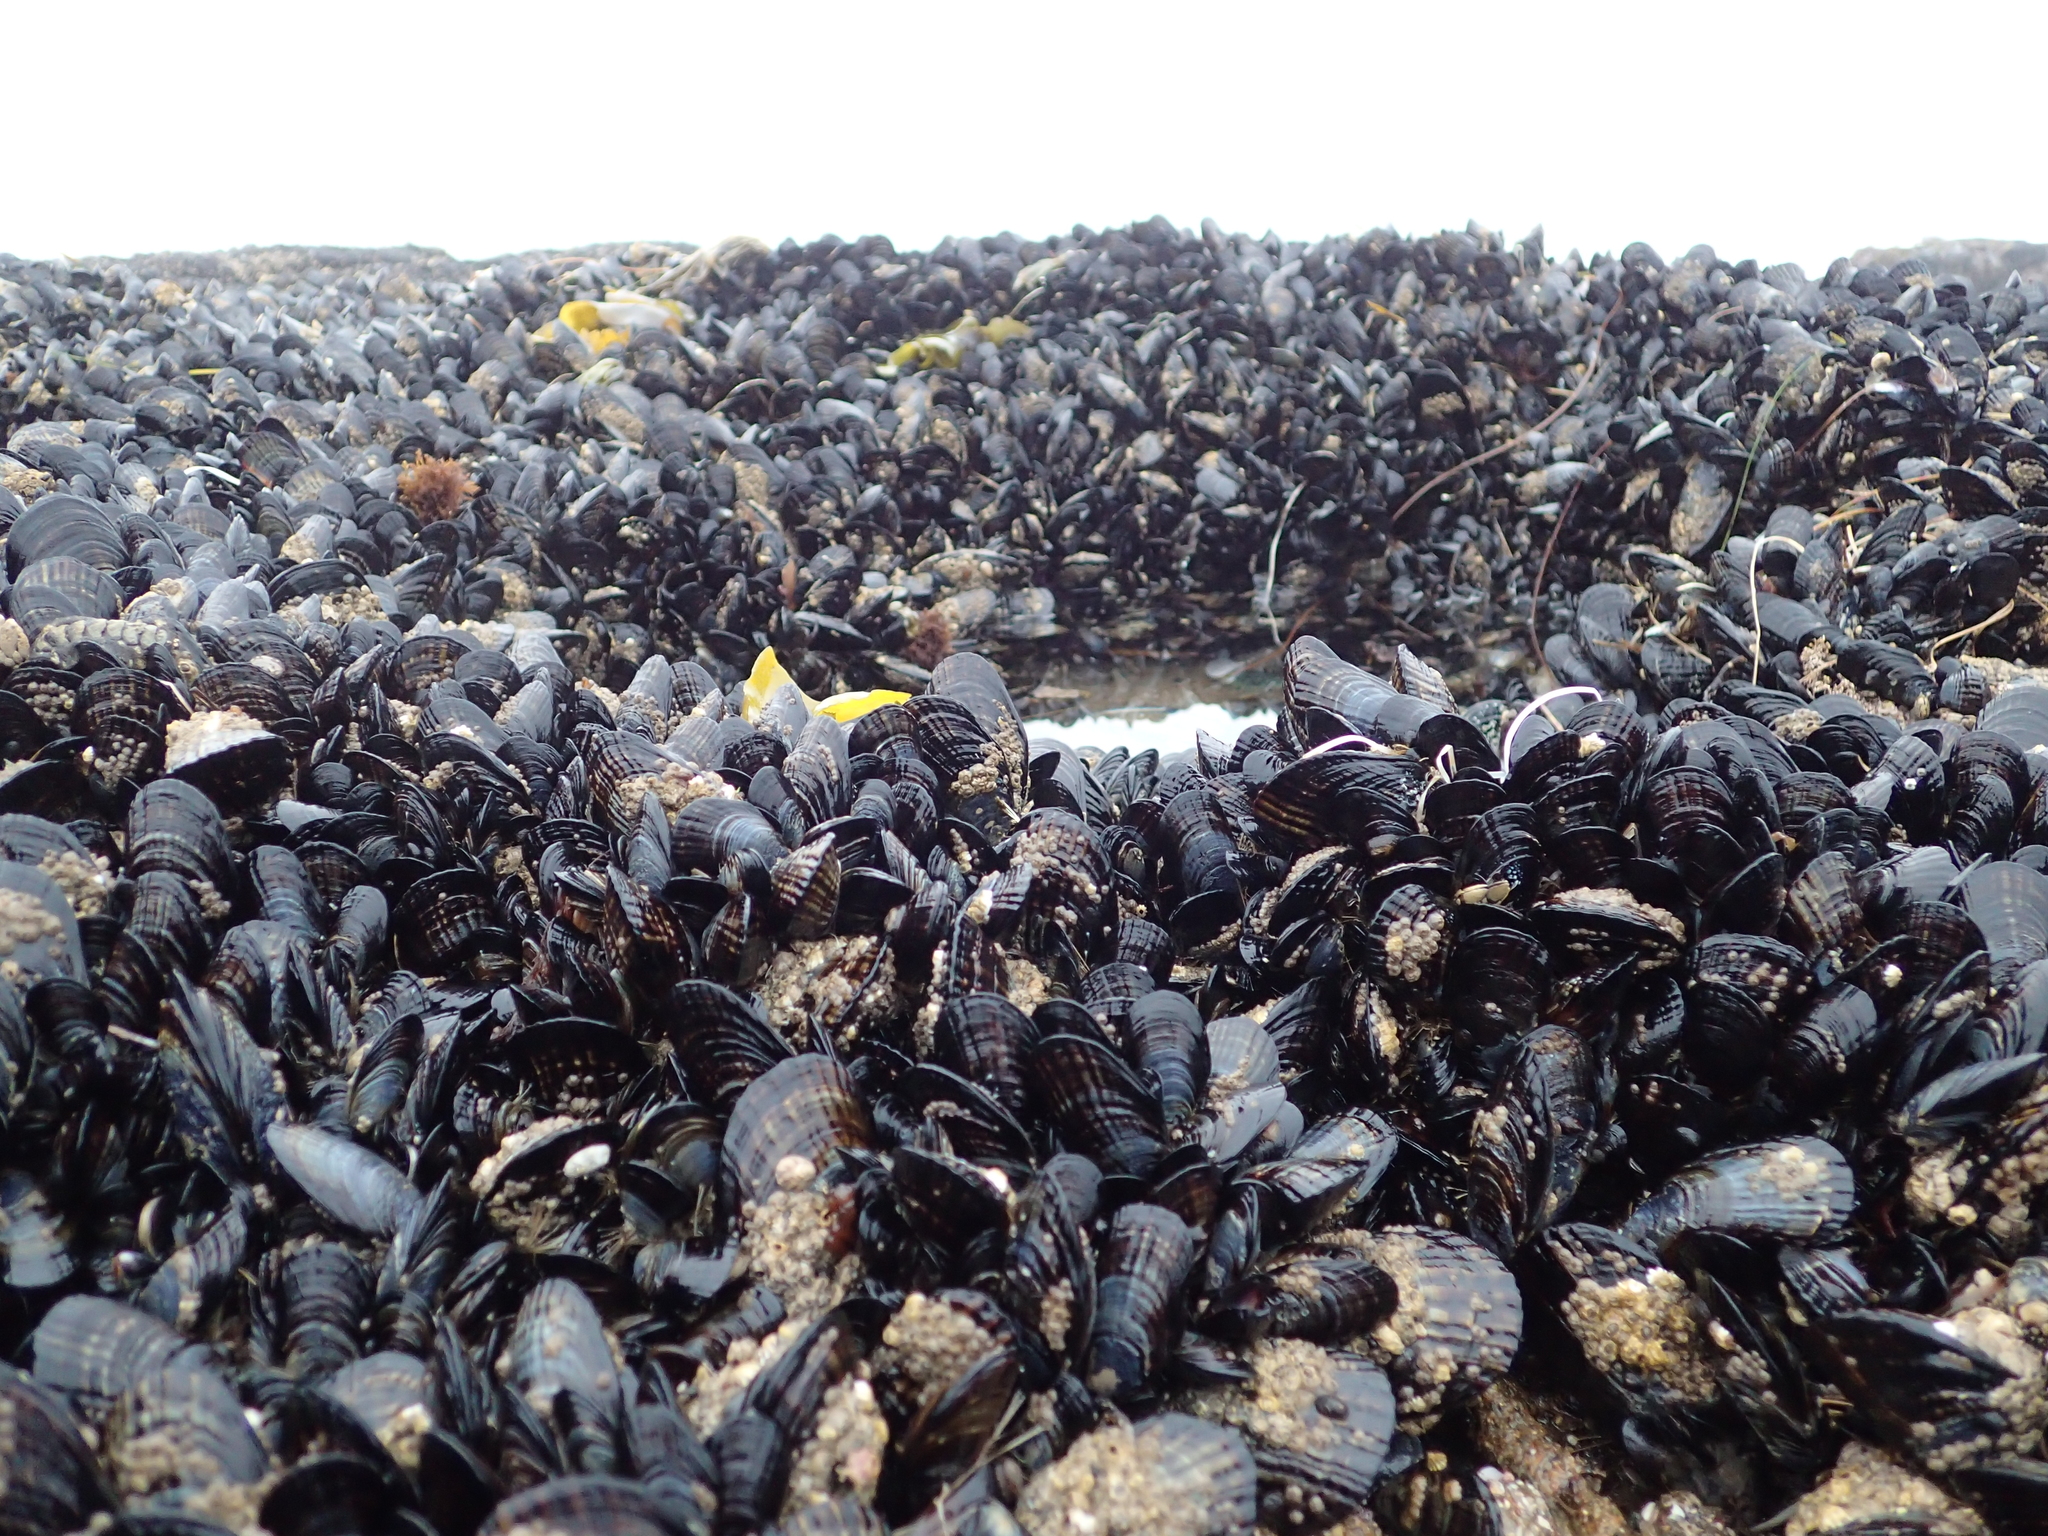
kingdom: Animalia
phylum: Mollusca
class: Bivalvia
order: Mytilida
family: Mytilidae
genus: Mytilus
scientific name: Mytilus californianus
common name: California mussel
